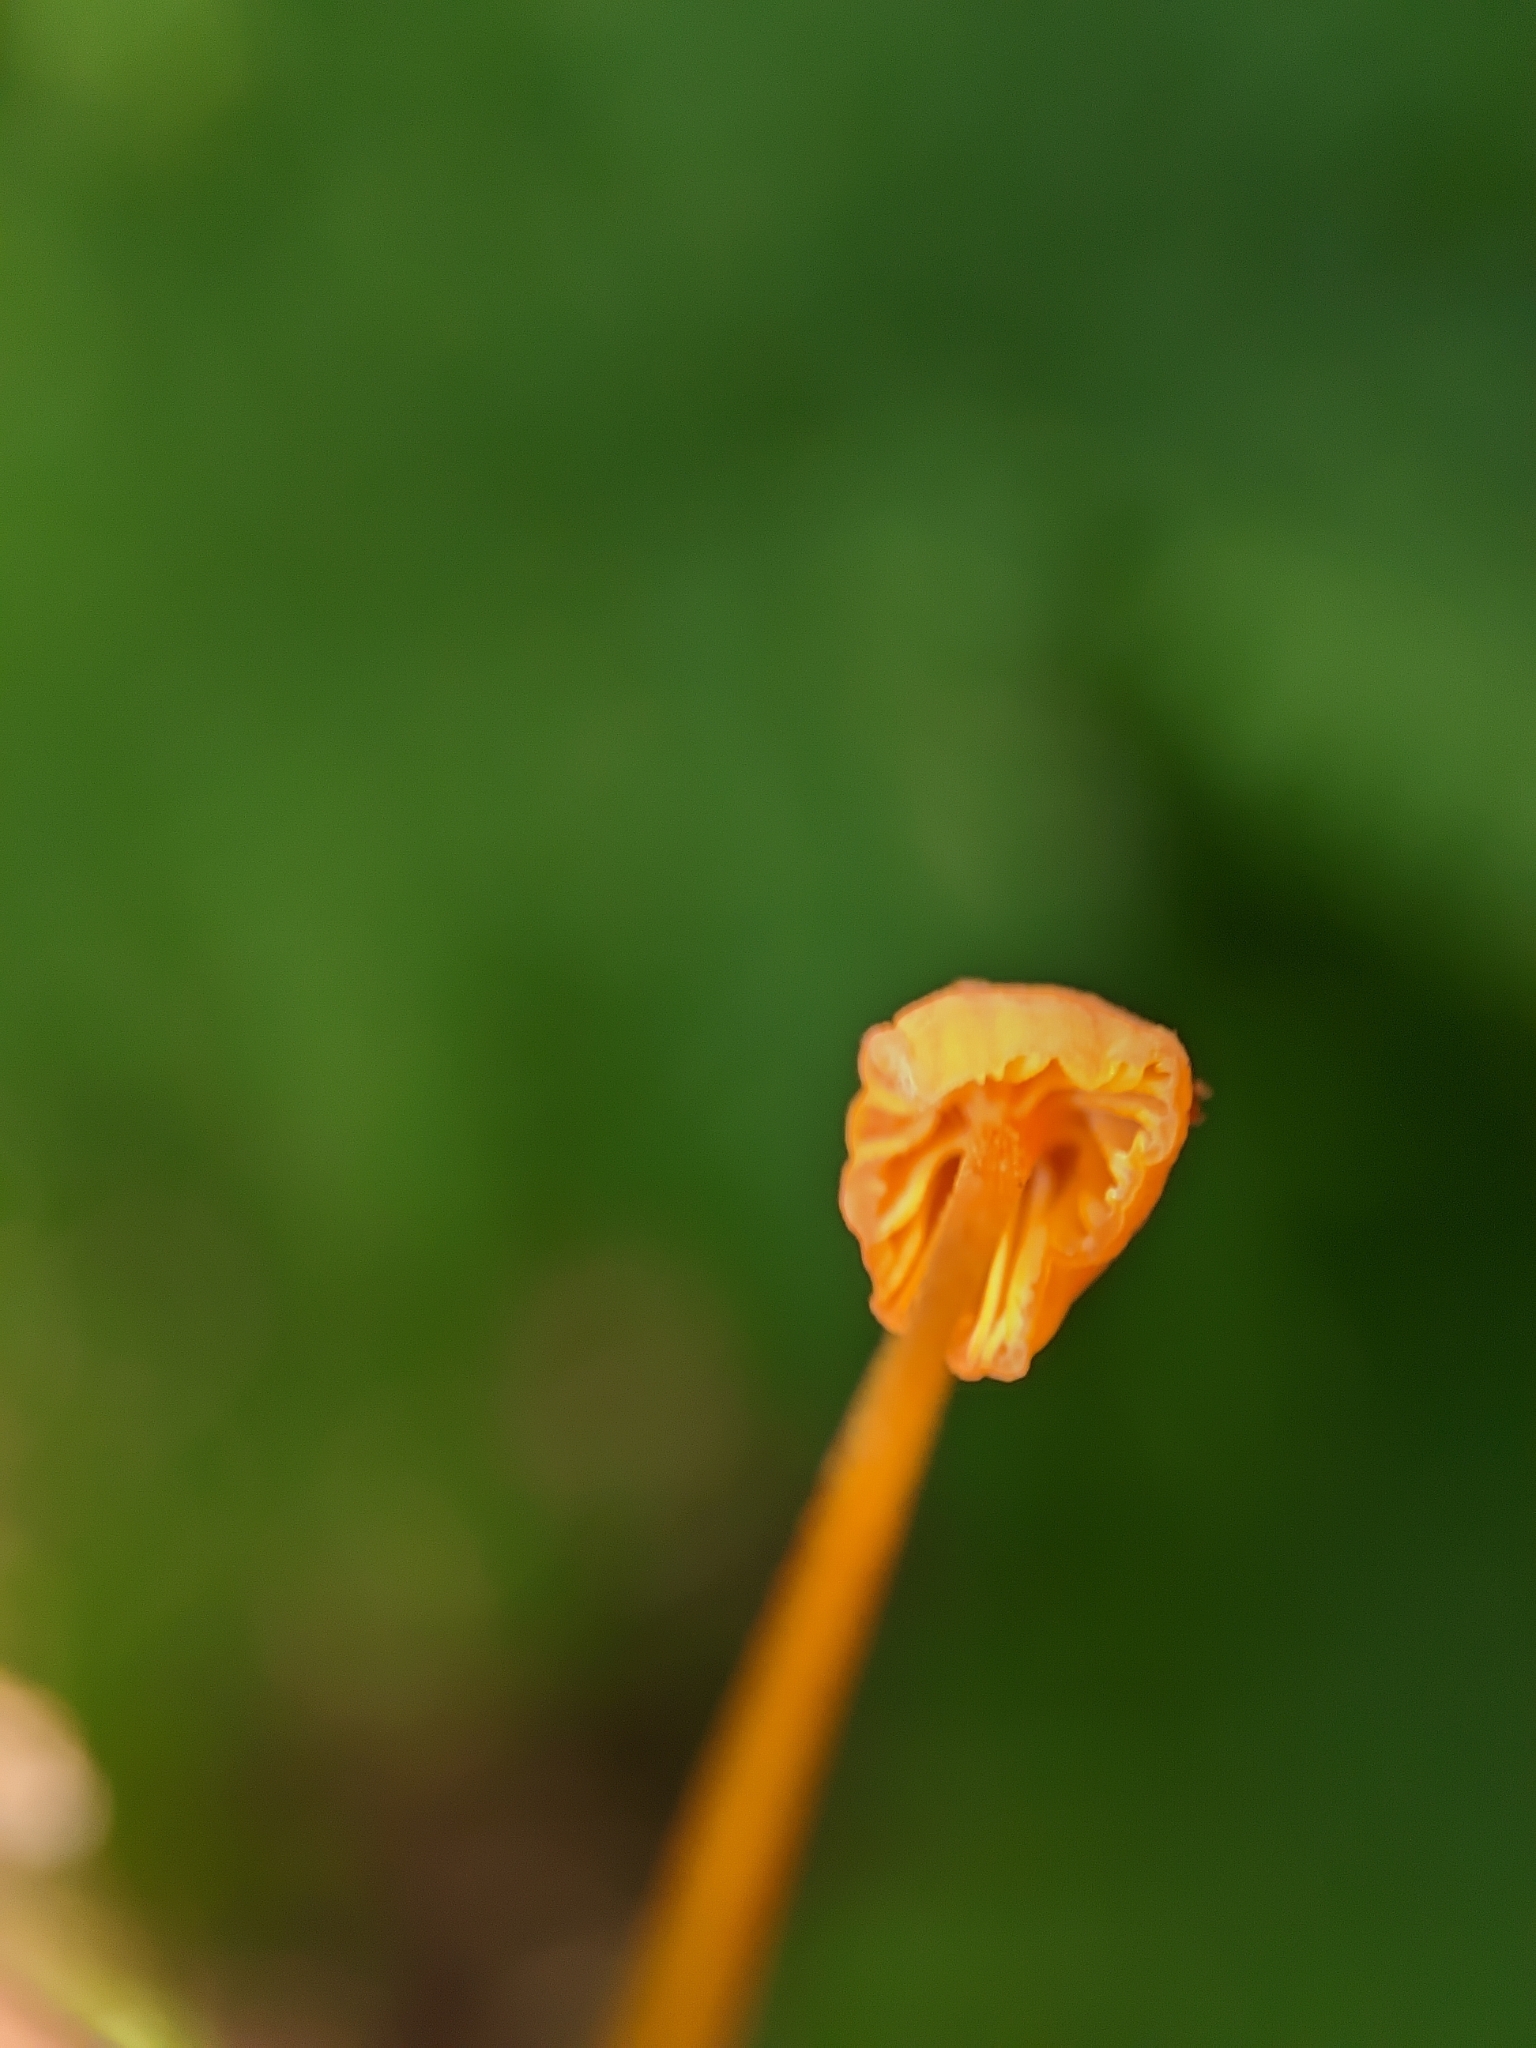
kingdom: Fungi
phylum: Basidiomycota
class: Agaricomycetes
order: Agaricales
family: Mycenaceae
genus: Mycena
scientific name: Mycena acicula
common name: Orange bonnet
